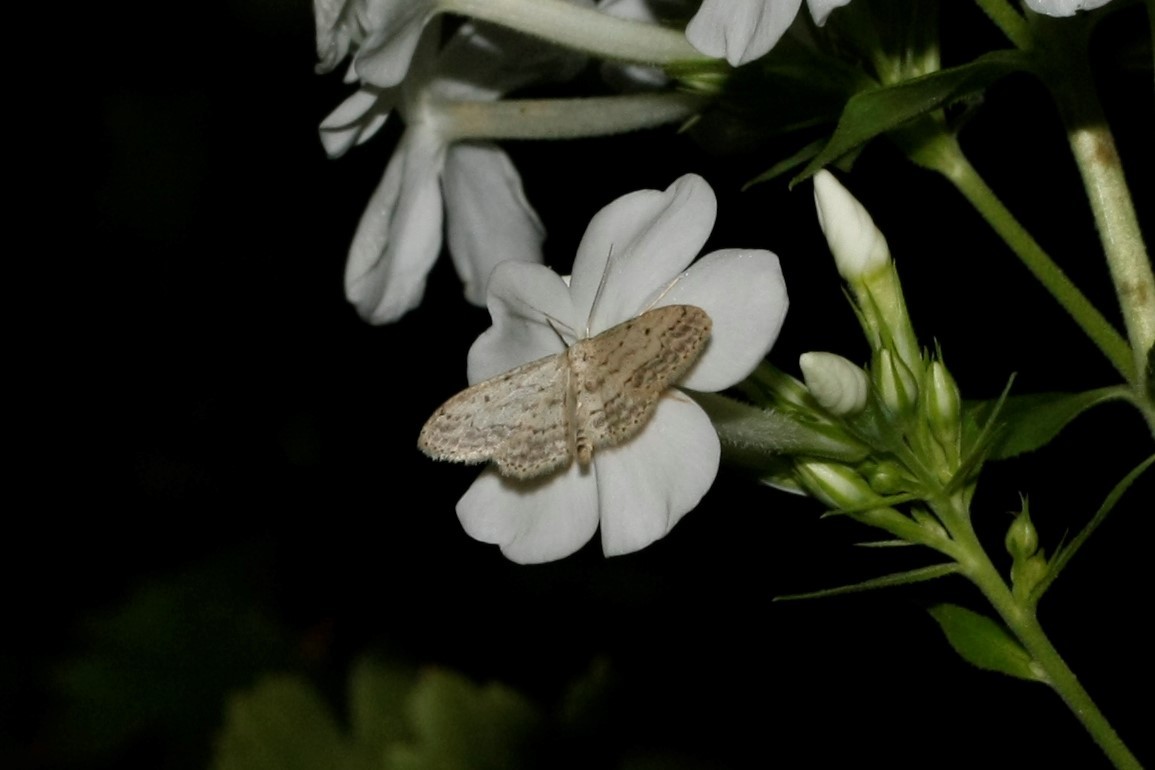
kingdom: Animalia
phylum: Arthropoda
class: Insecta
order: Lepidoptera
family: Geometridae
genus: Idaea
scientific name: Idaea seriata
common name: Small dusty wave
